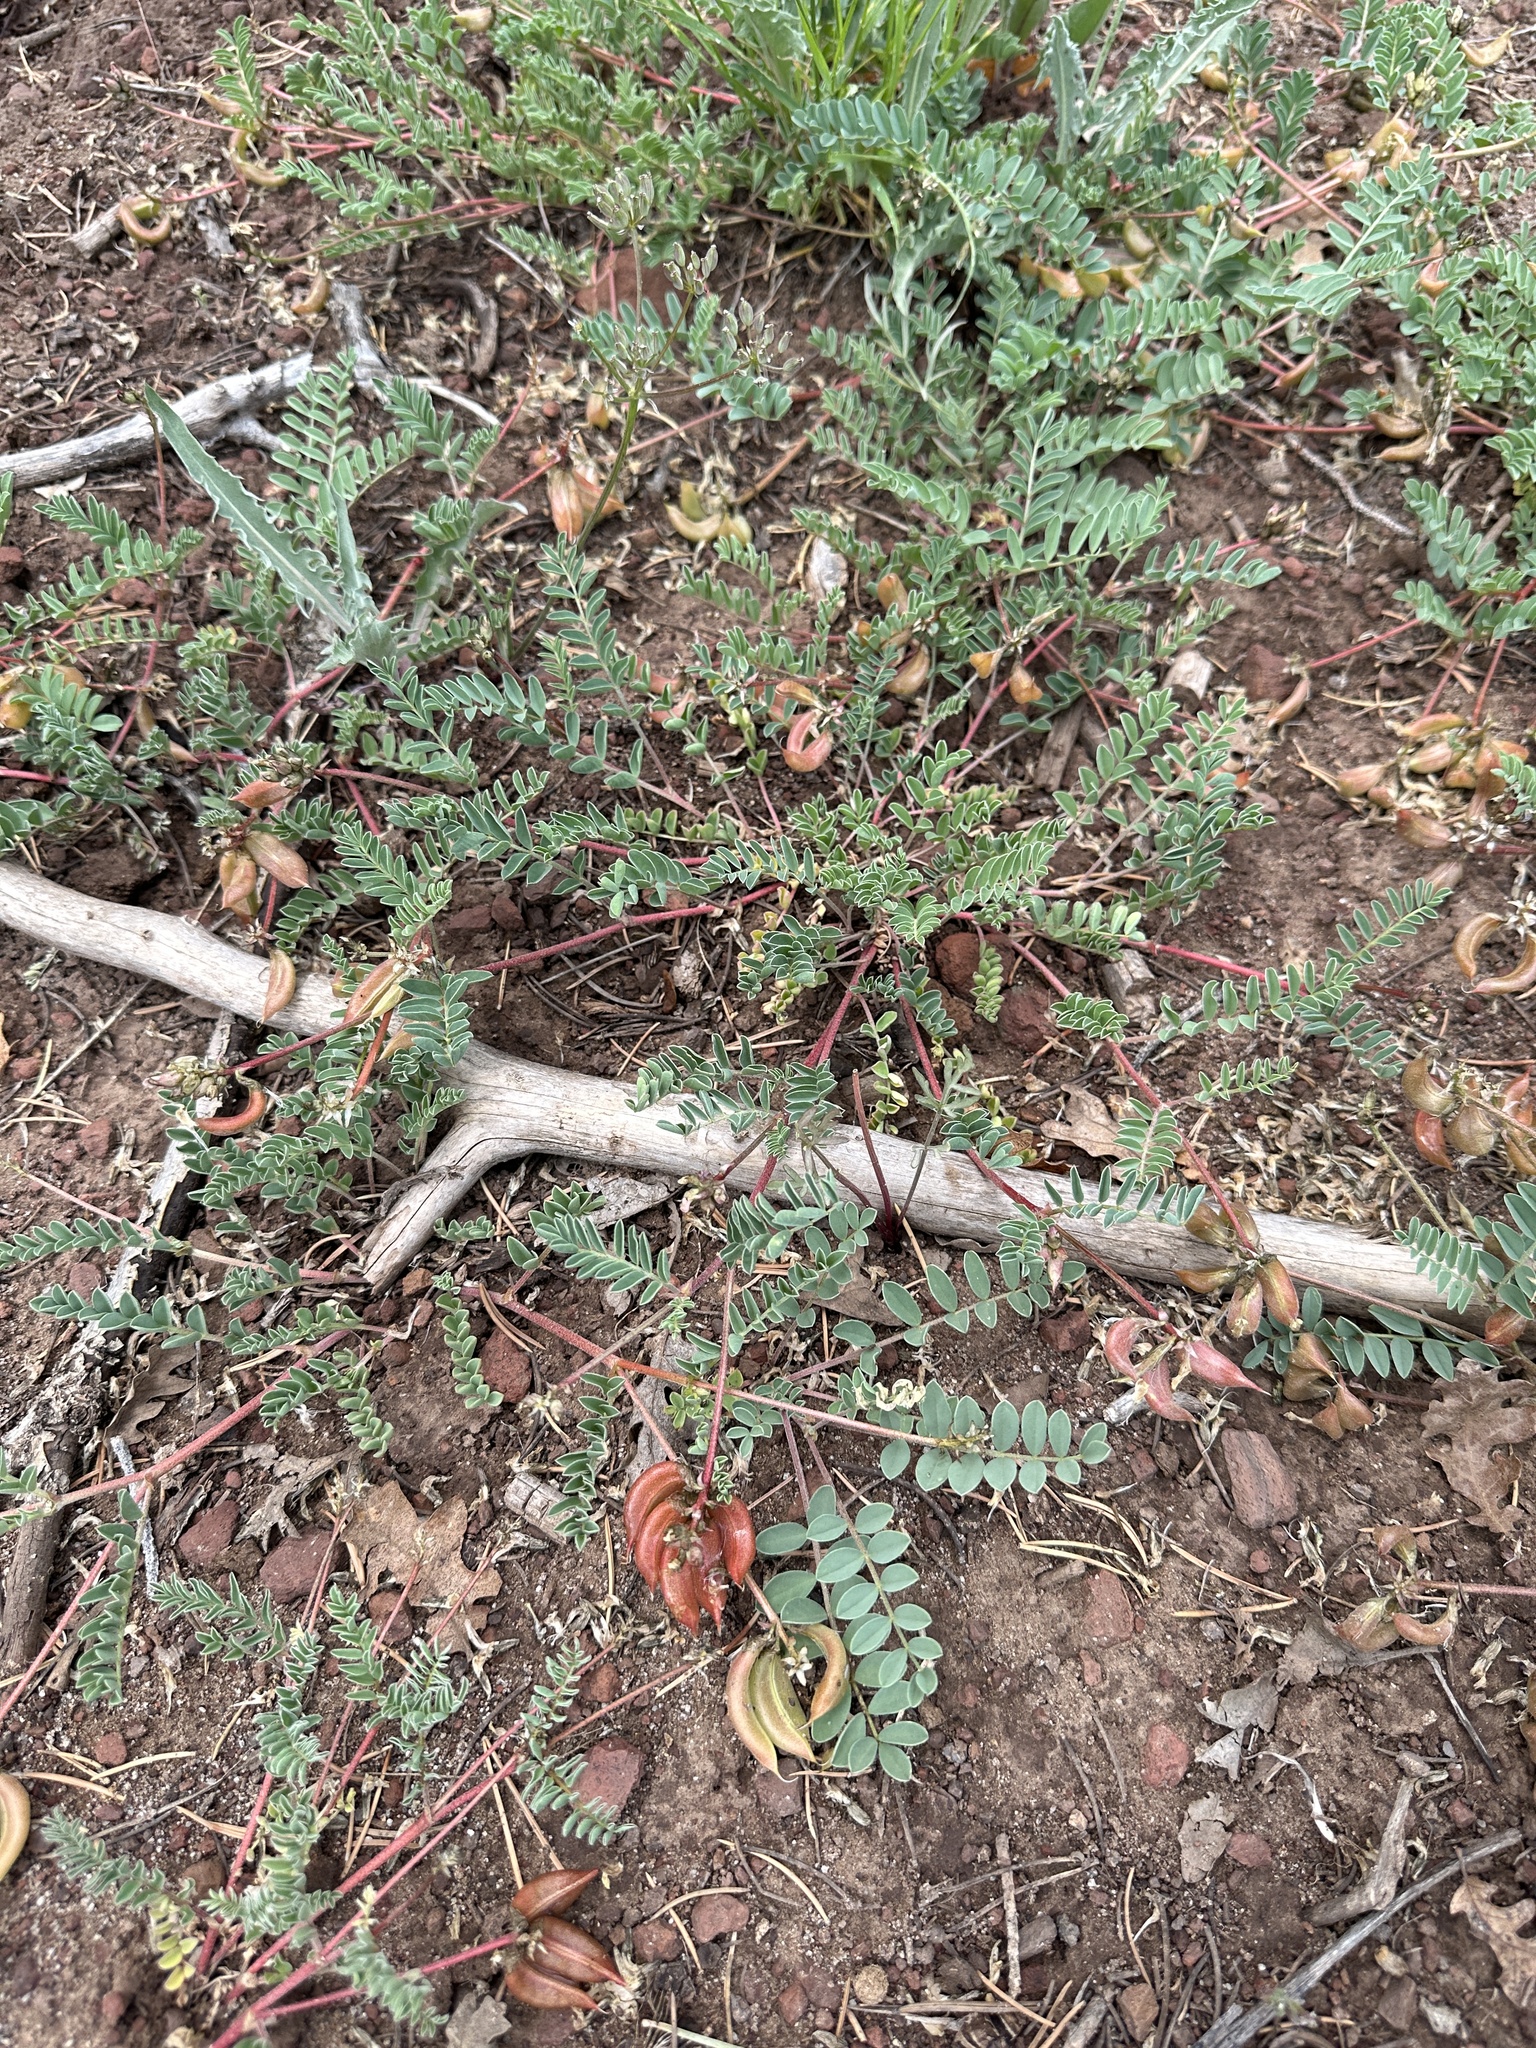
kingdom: Plantae
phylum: Tracheophyta
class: Magnoliopsida
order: Fabales
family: Fabaceae
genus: Astragalus
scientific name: Astragalus cibarius
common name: Browse milk-vetch
